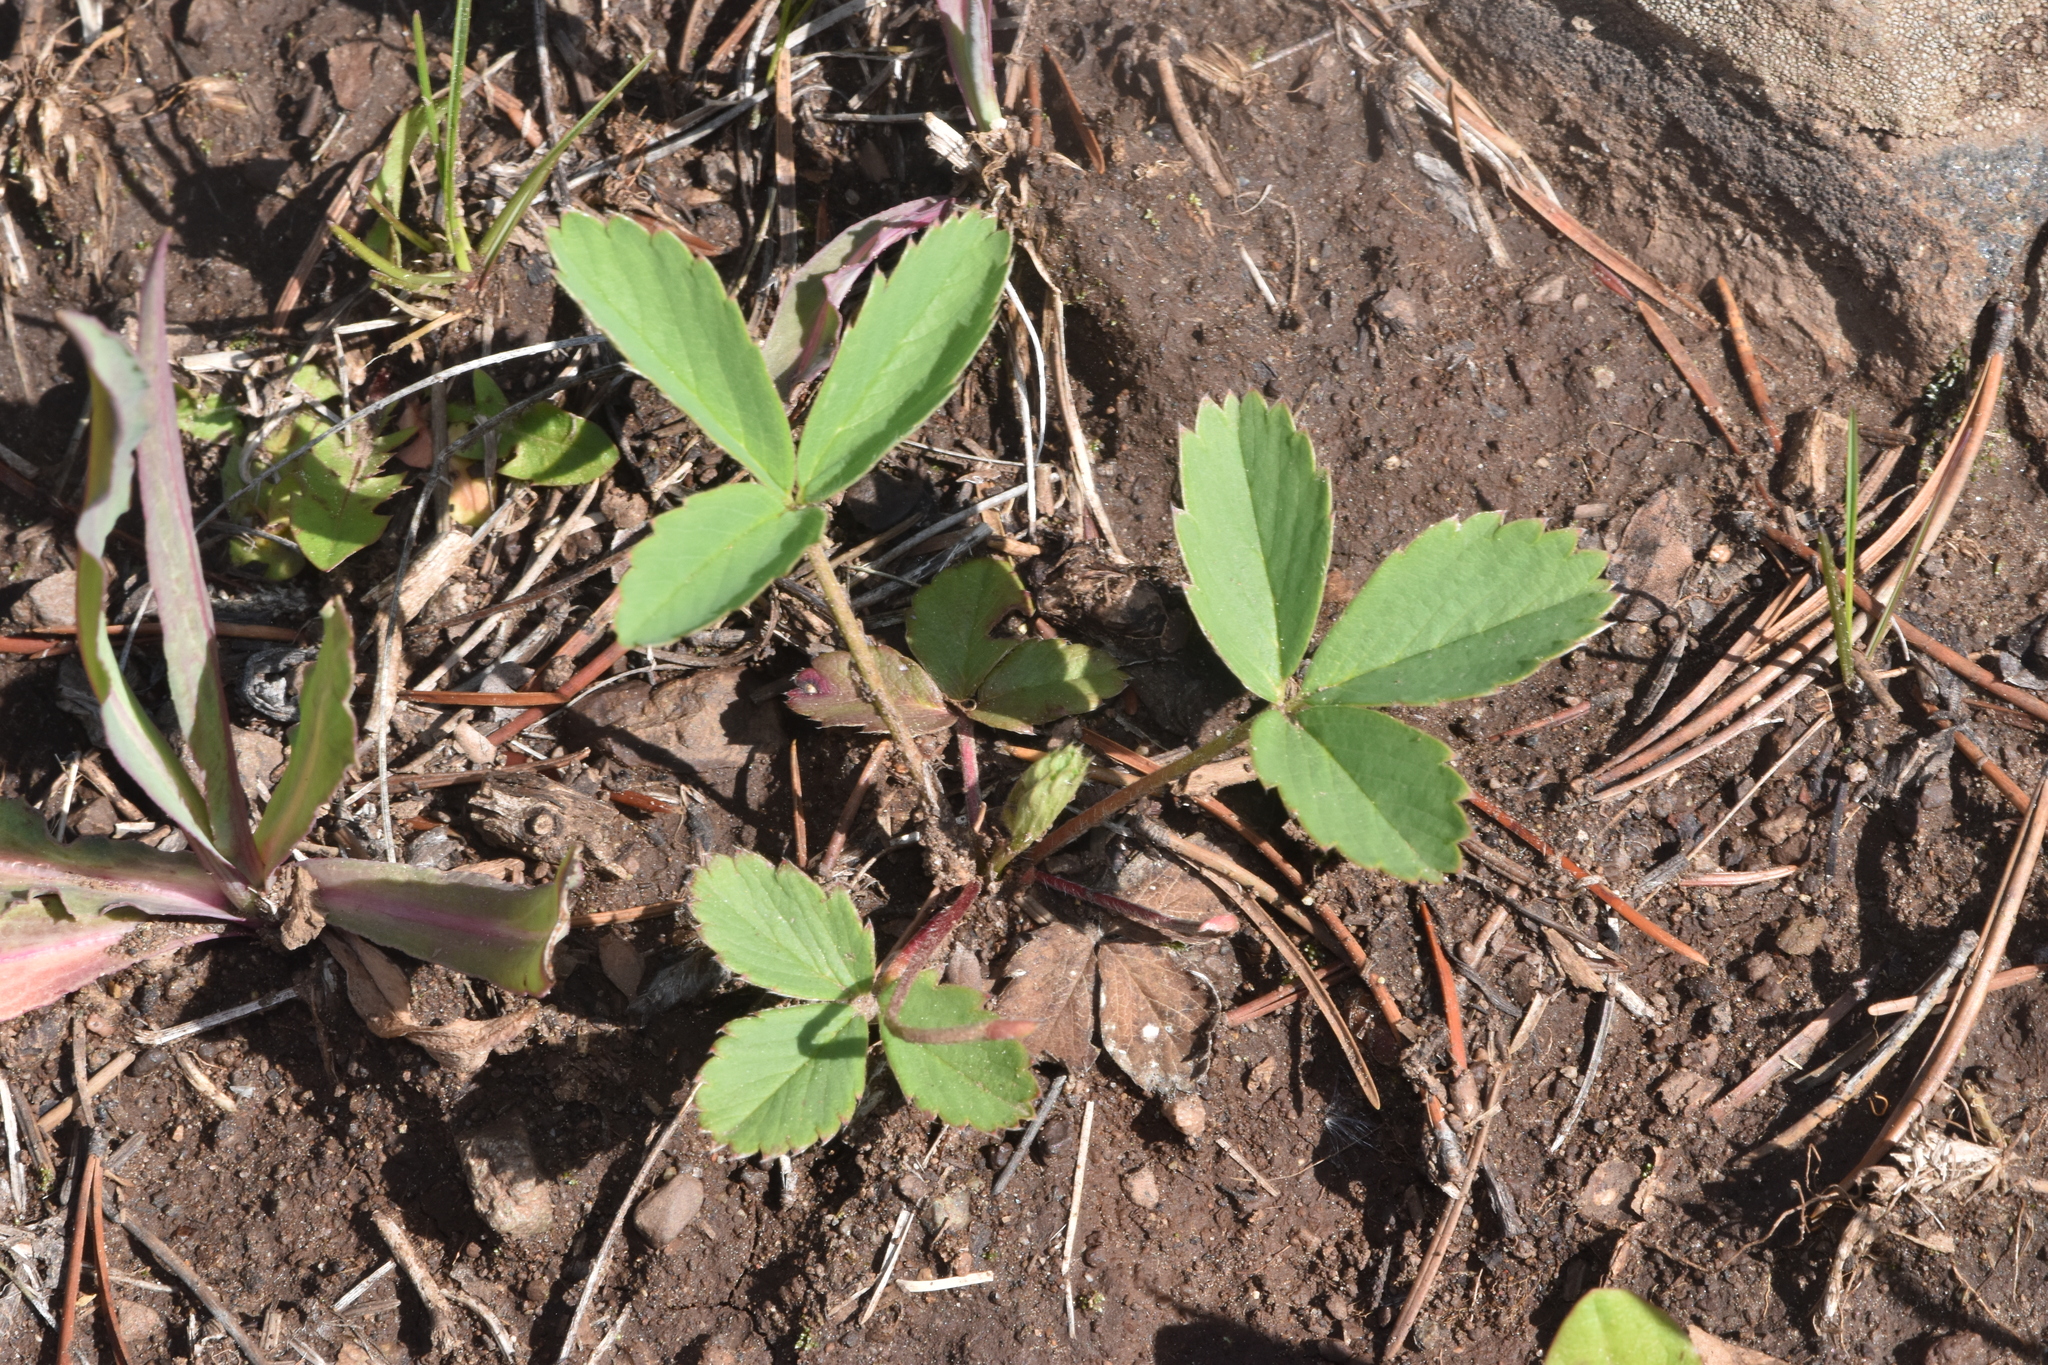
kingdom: Plantae
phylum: Tracheophyta
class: Magnoliopsida
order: Rosales
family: Rosaceae
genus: Fragaria
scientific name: Fragaria virginiana
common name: Thickleaved wild strawberry
